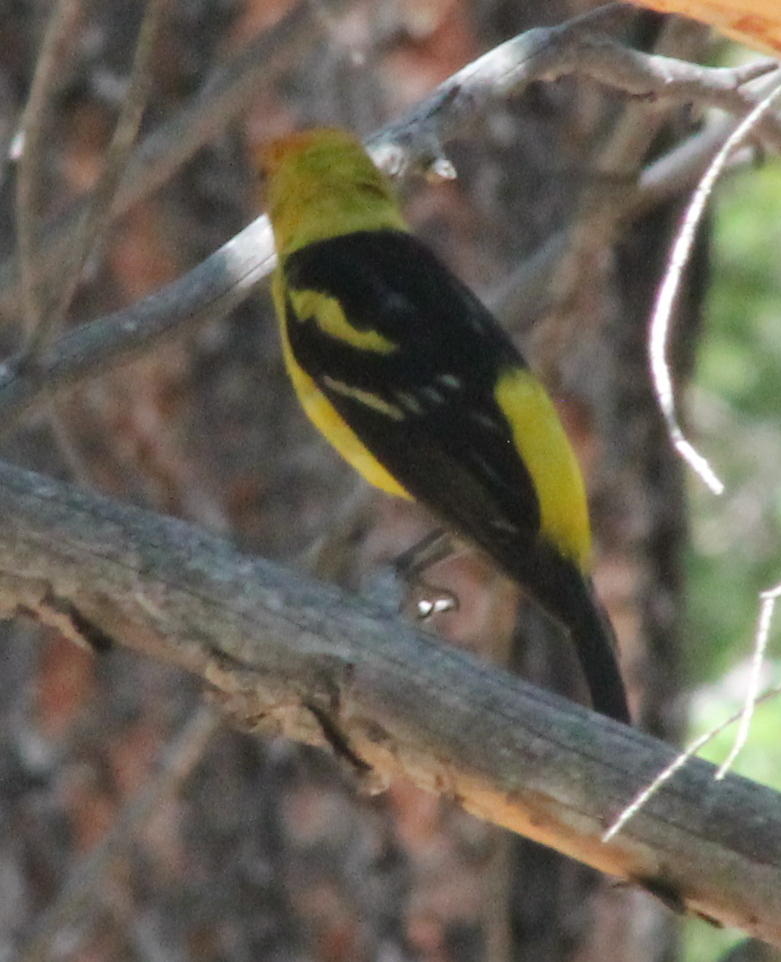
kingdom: Animalia
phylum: Chordata
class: Aves
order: Passeriformes
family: Cardinalidae
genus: Piranga
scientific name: Piranga ludoviciana
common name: Western tanager
